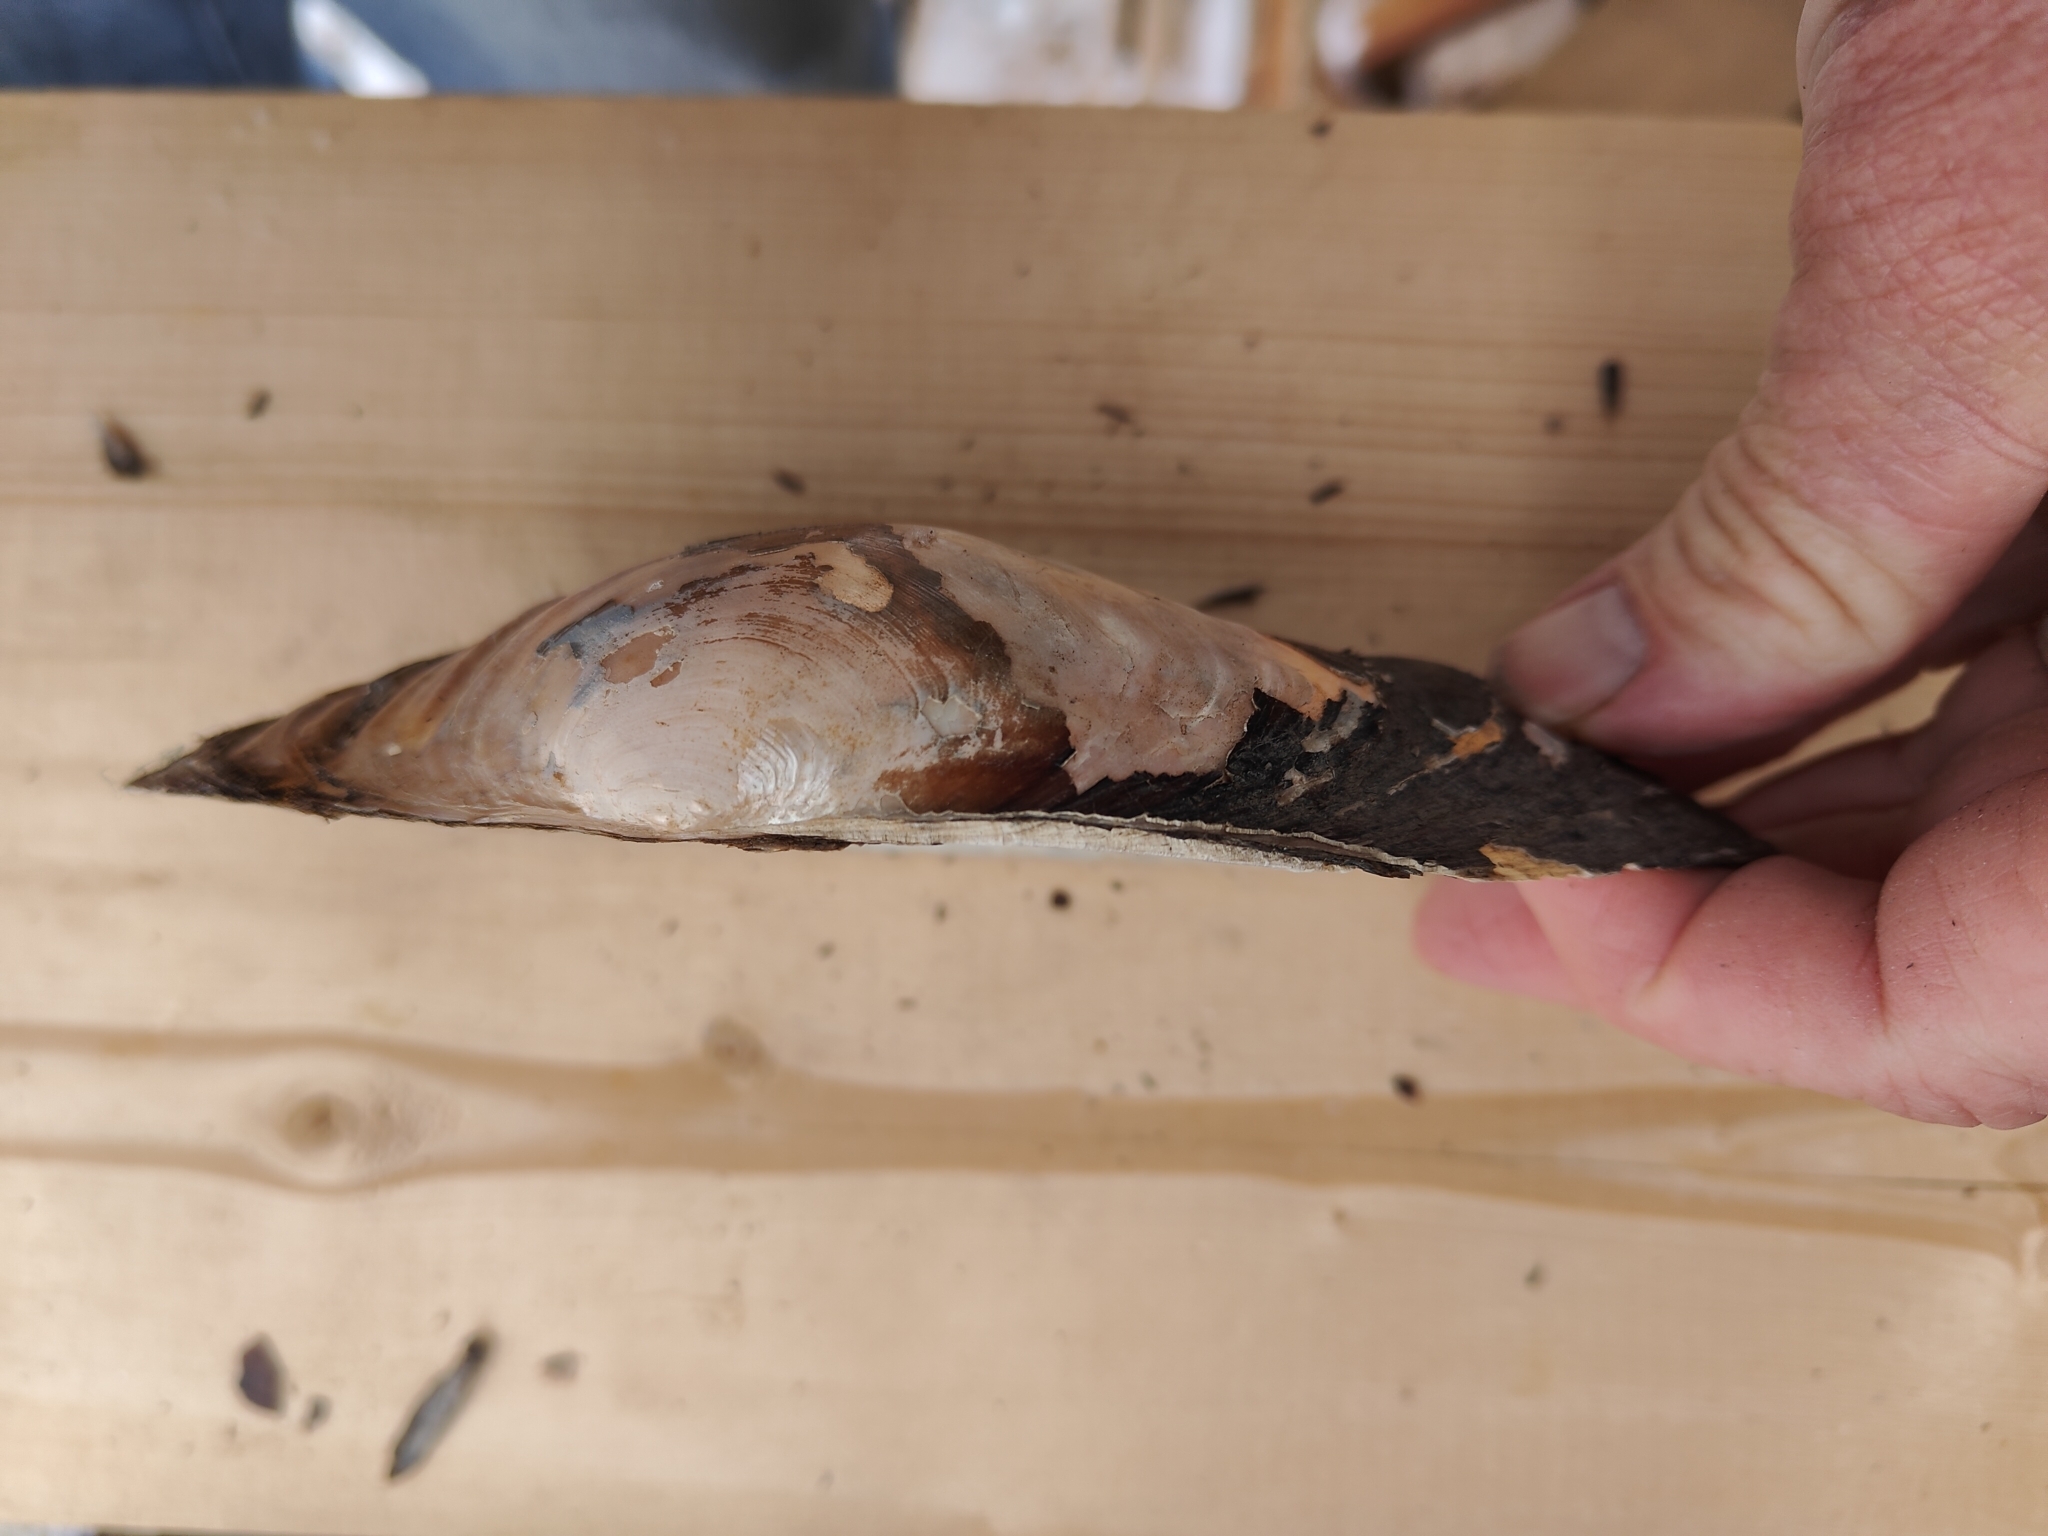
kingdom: Animalia
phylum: Mollusca
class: Bivalvia
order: Unionida
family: Unionidae
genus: Pyganodon
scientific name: Pyganodon grandis
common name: Giant floater
